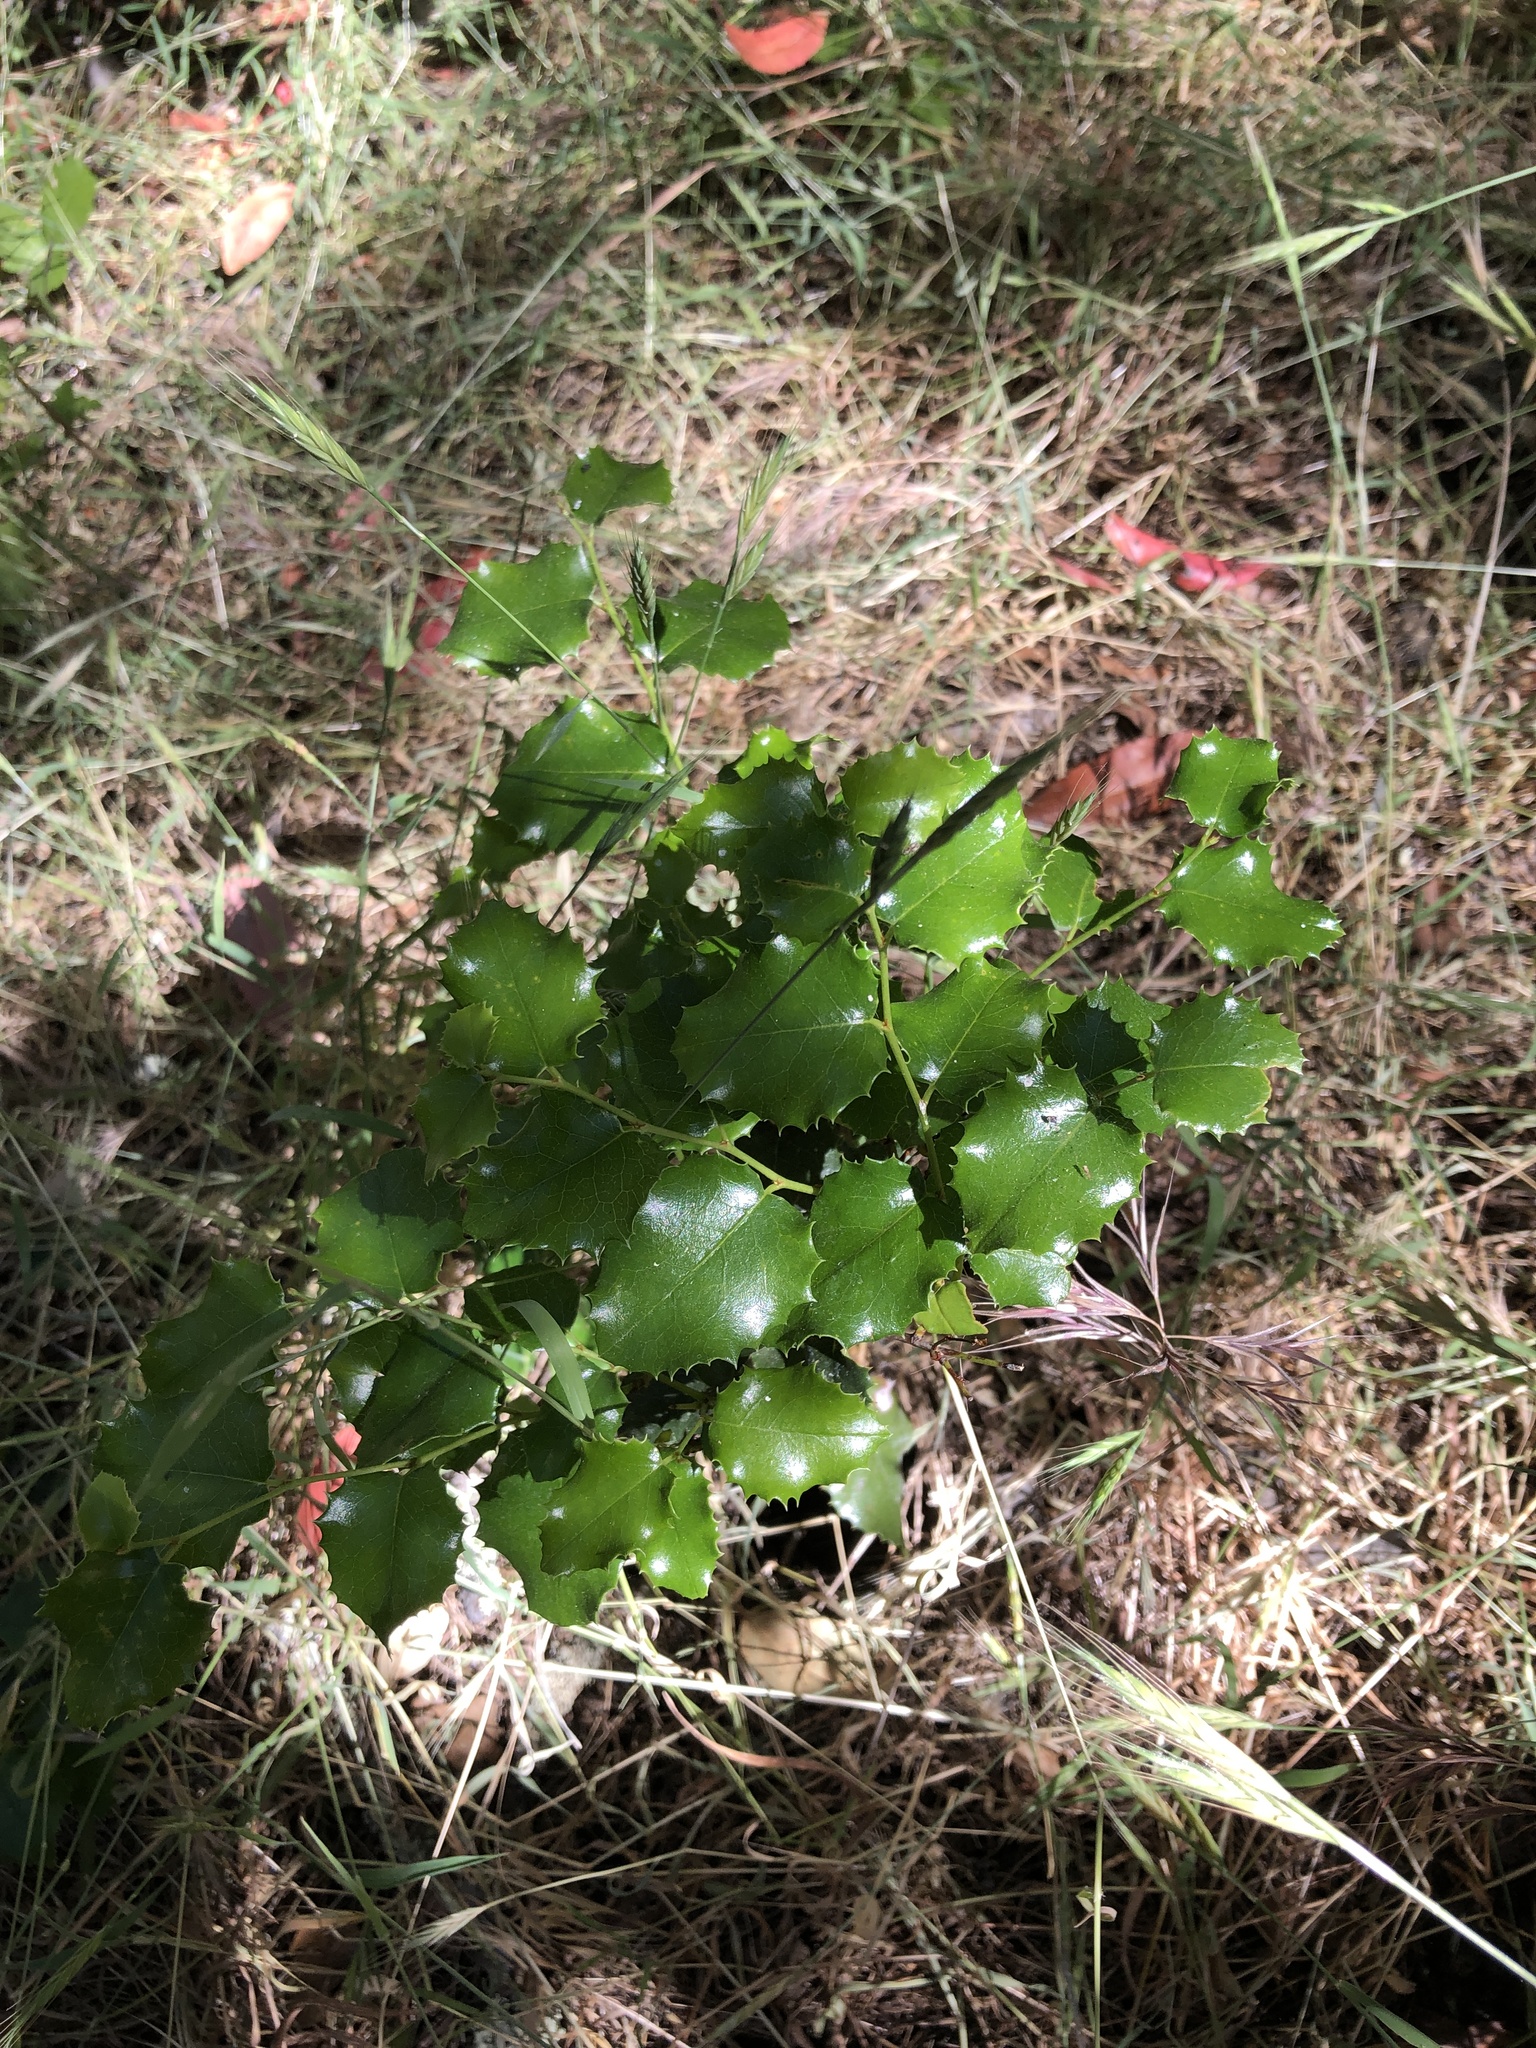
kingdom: Plantae
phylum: Tracheophyta
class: Magnoliopsida
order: Rosales
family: Rosaceae
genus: Prunus
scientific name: Prunus ilicifolia
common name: Hollyleaf cherry
